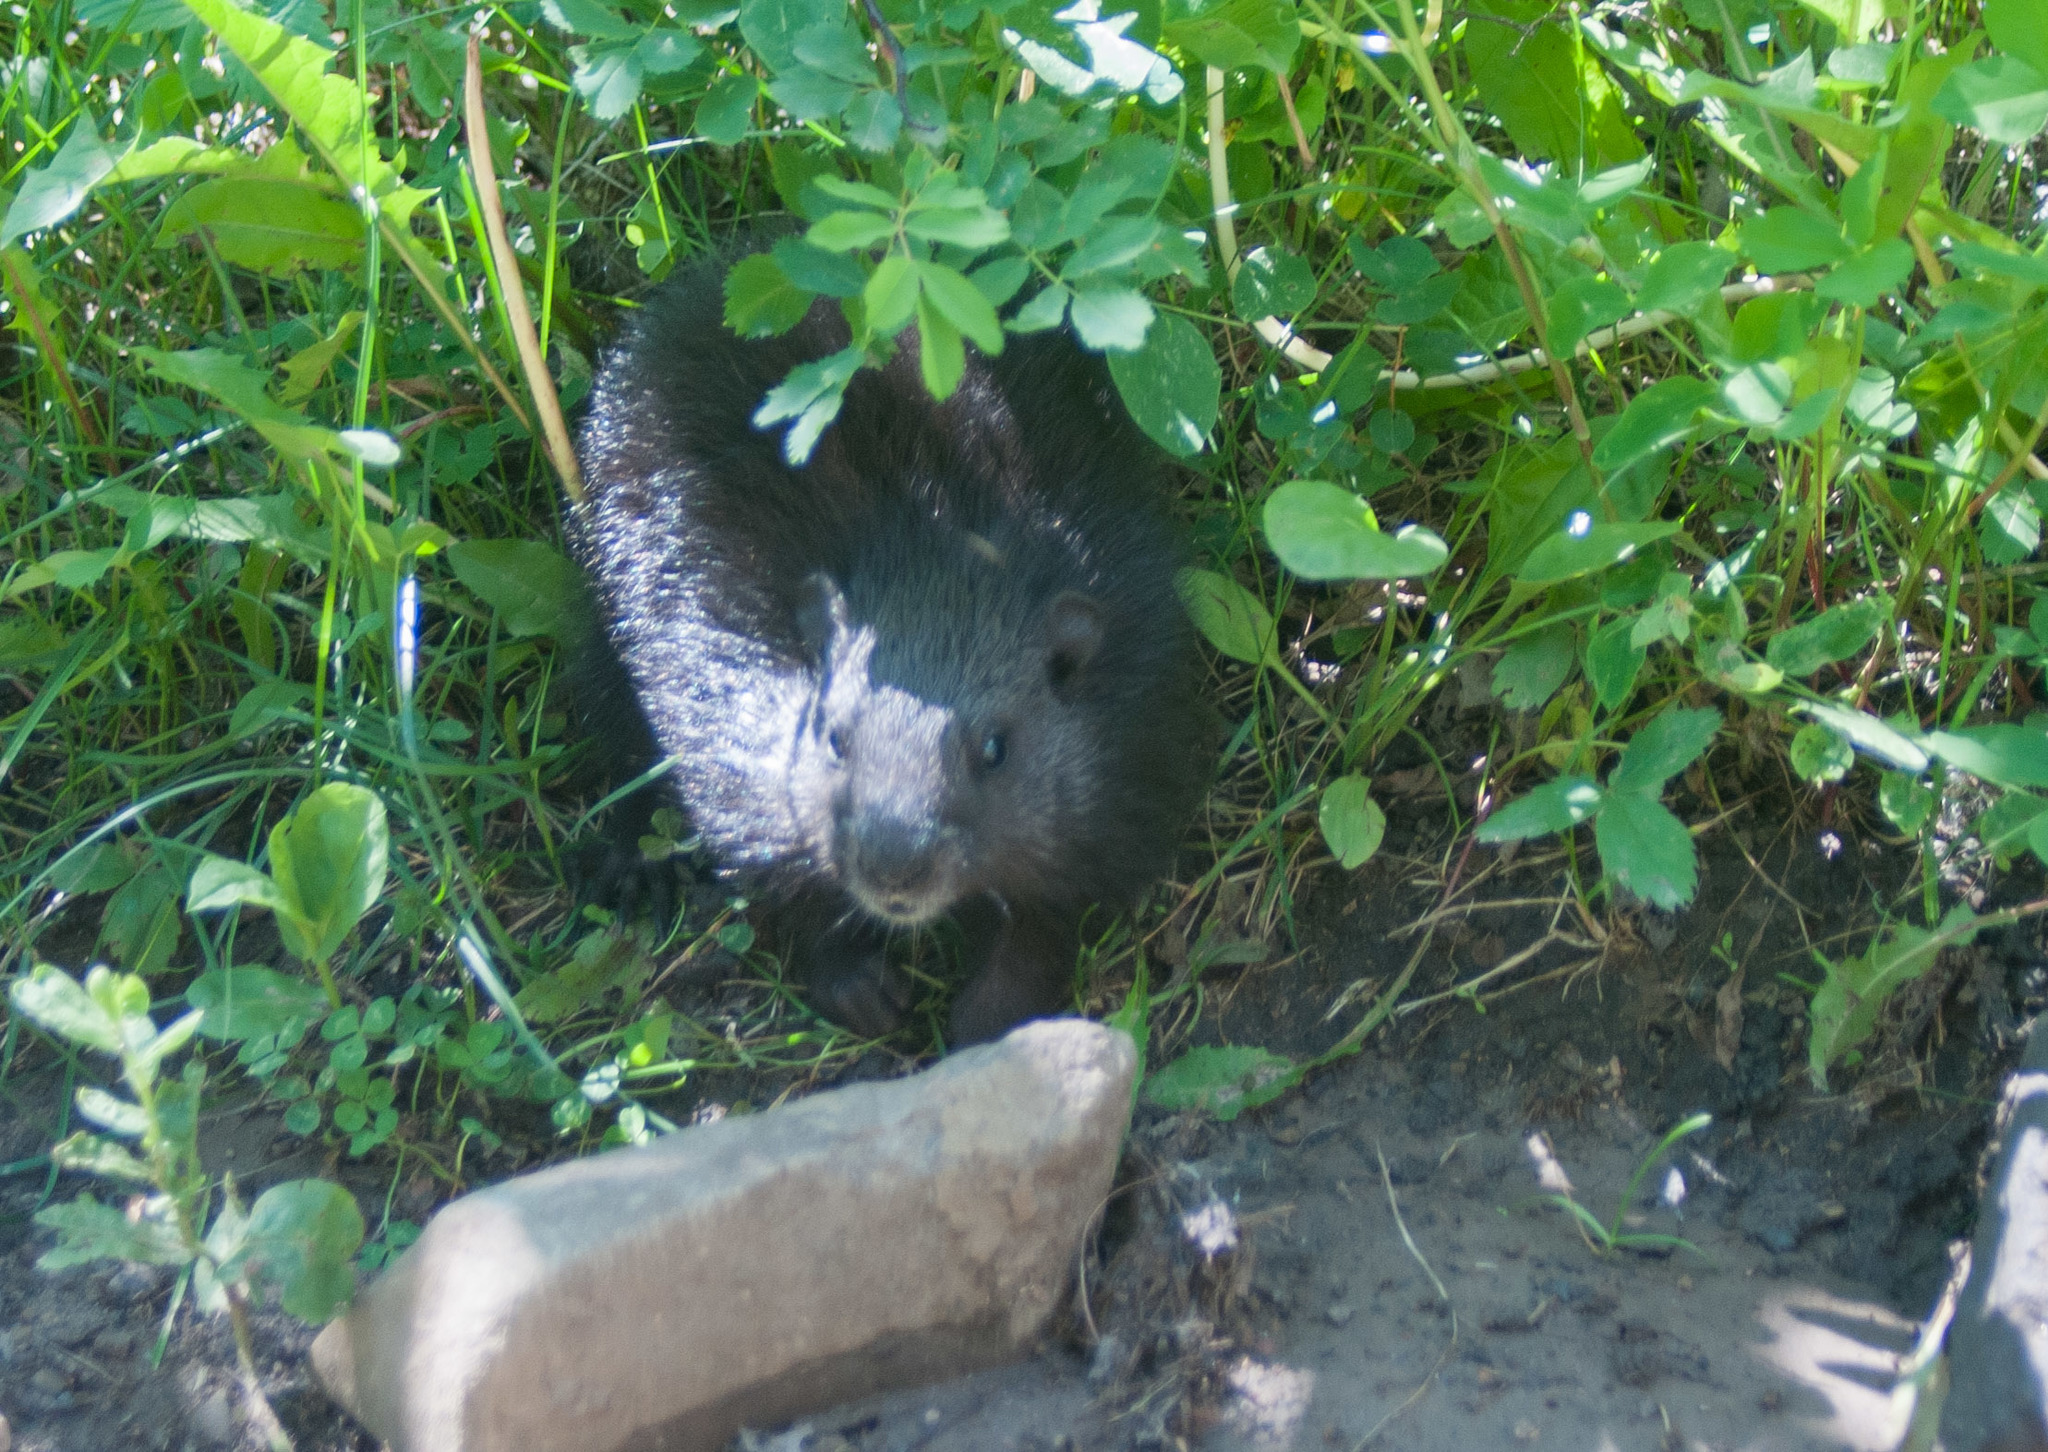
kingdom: Animalia
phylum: Chordata
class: Mammalia
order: Rodentia
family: Sciuridae
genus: Marmota
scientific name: Marmota monax
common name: Groundhog
